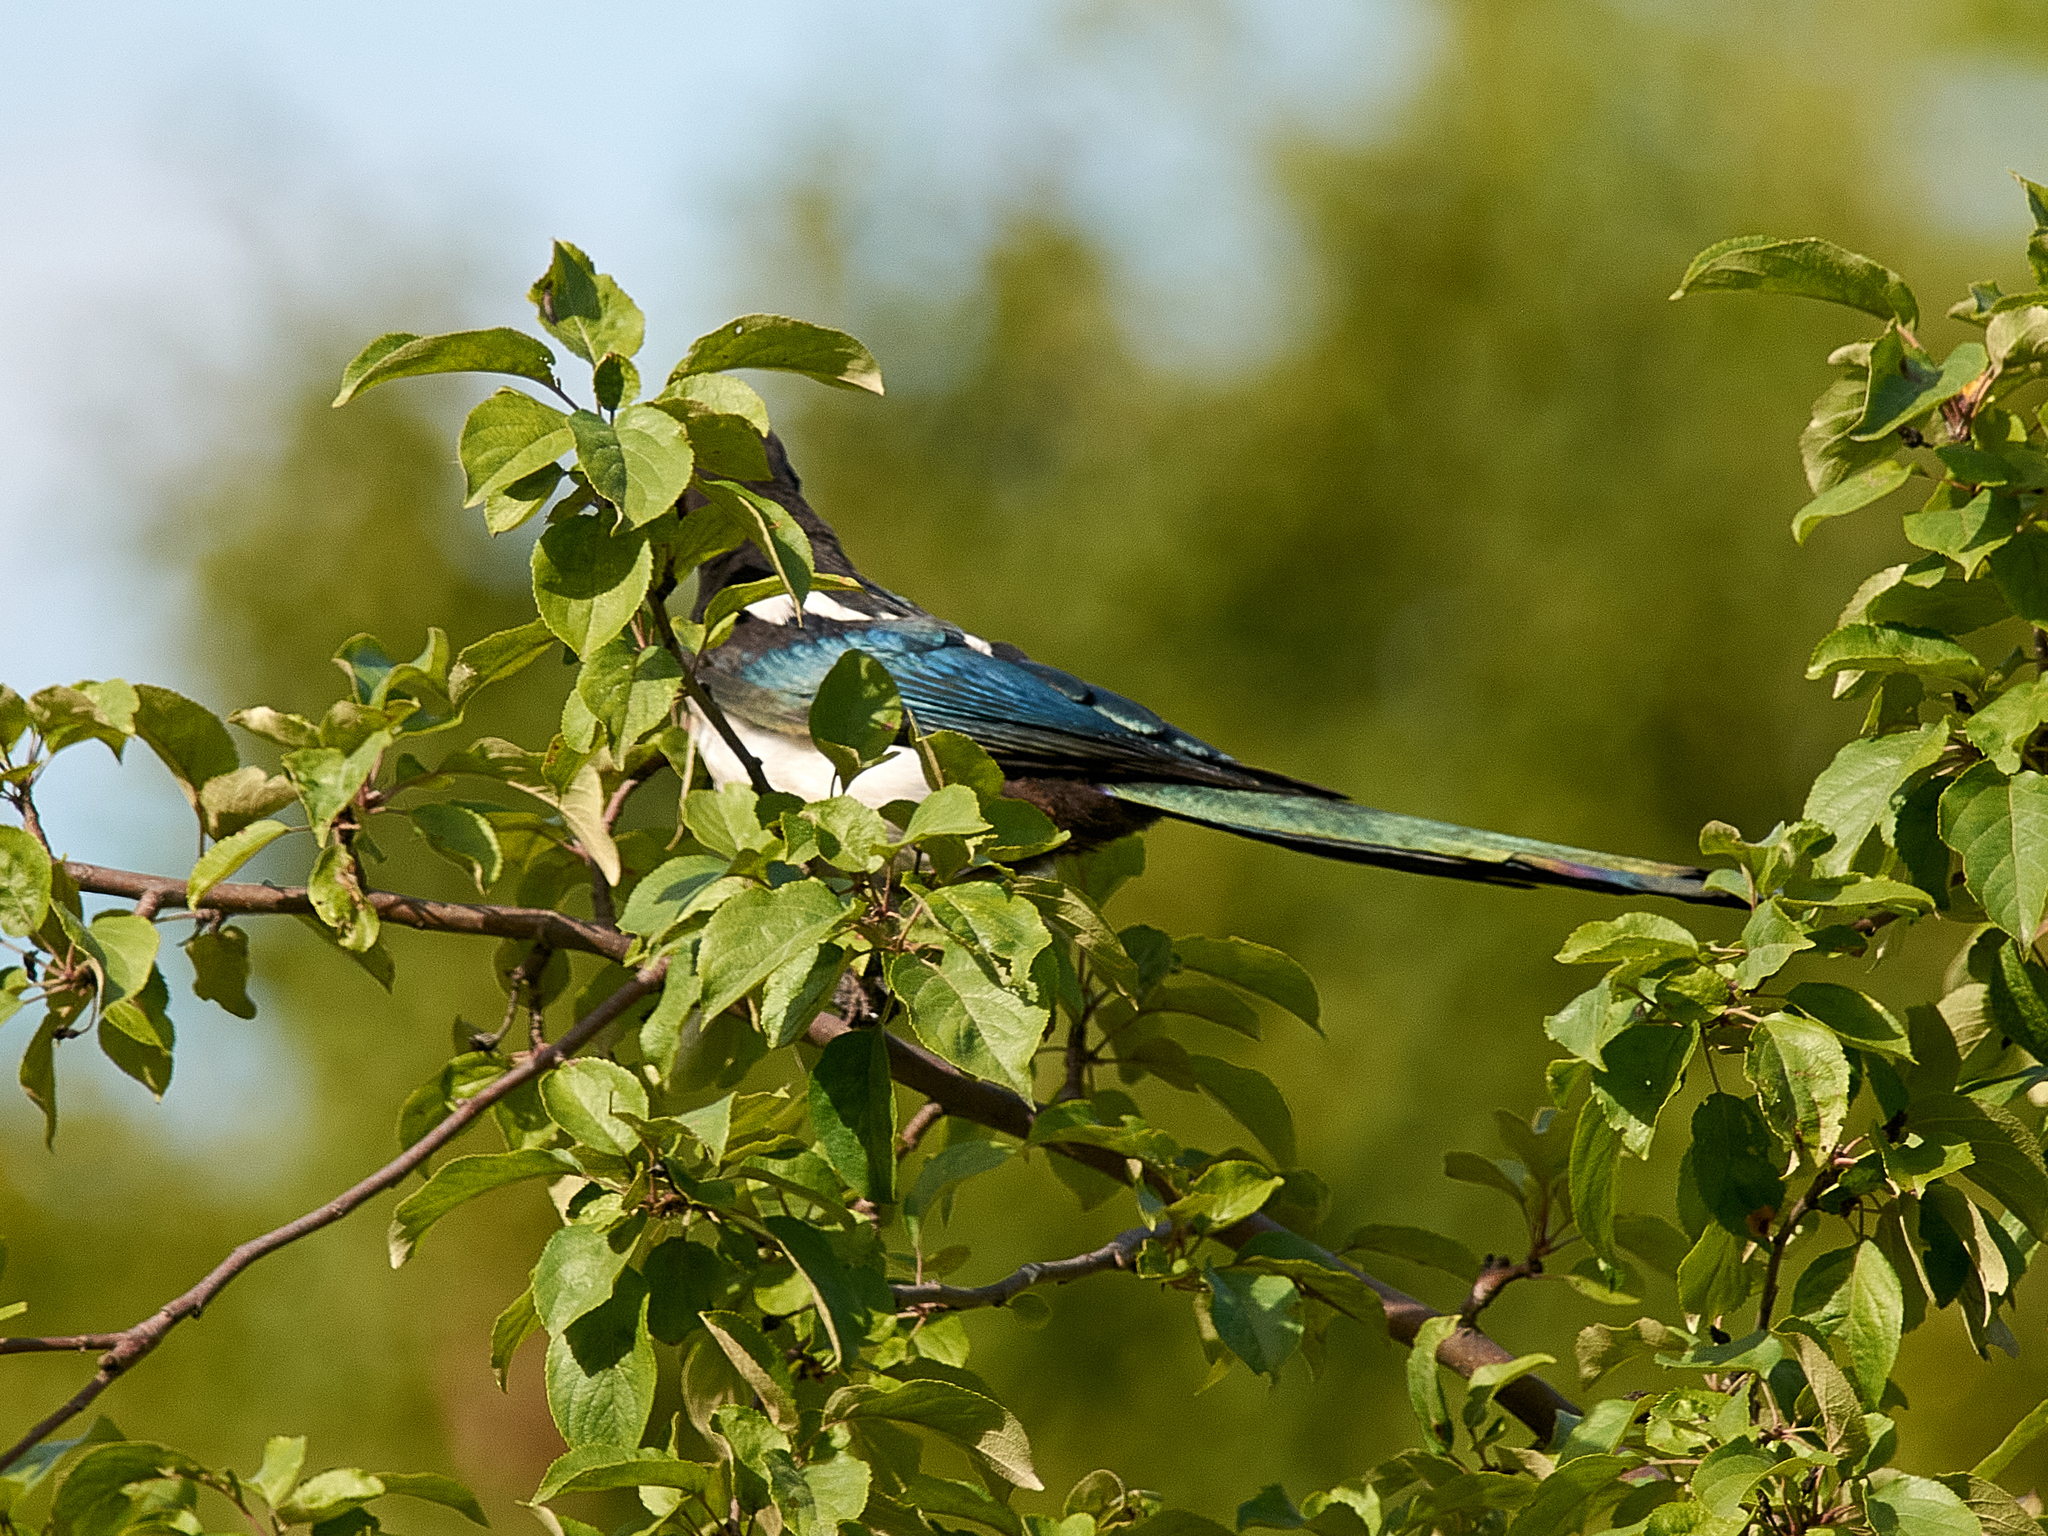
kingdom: Animalia
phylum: Chordata
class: Aves
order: Passeriformes
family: Corvidae
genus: Pica
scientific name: Pica pica
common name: Eurasian magpie
